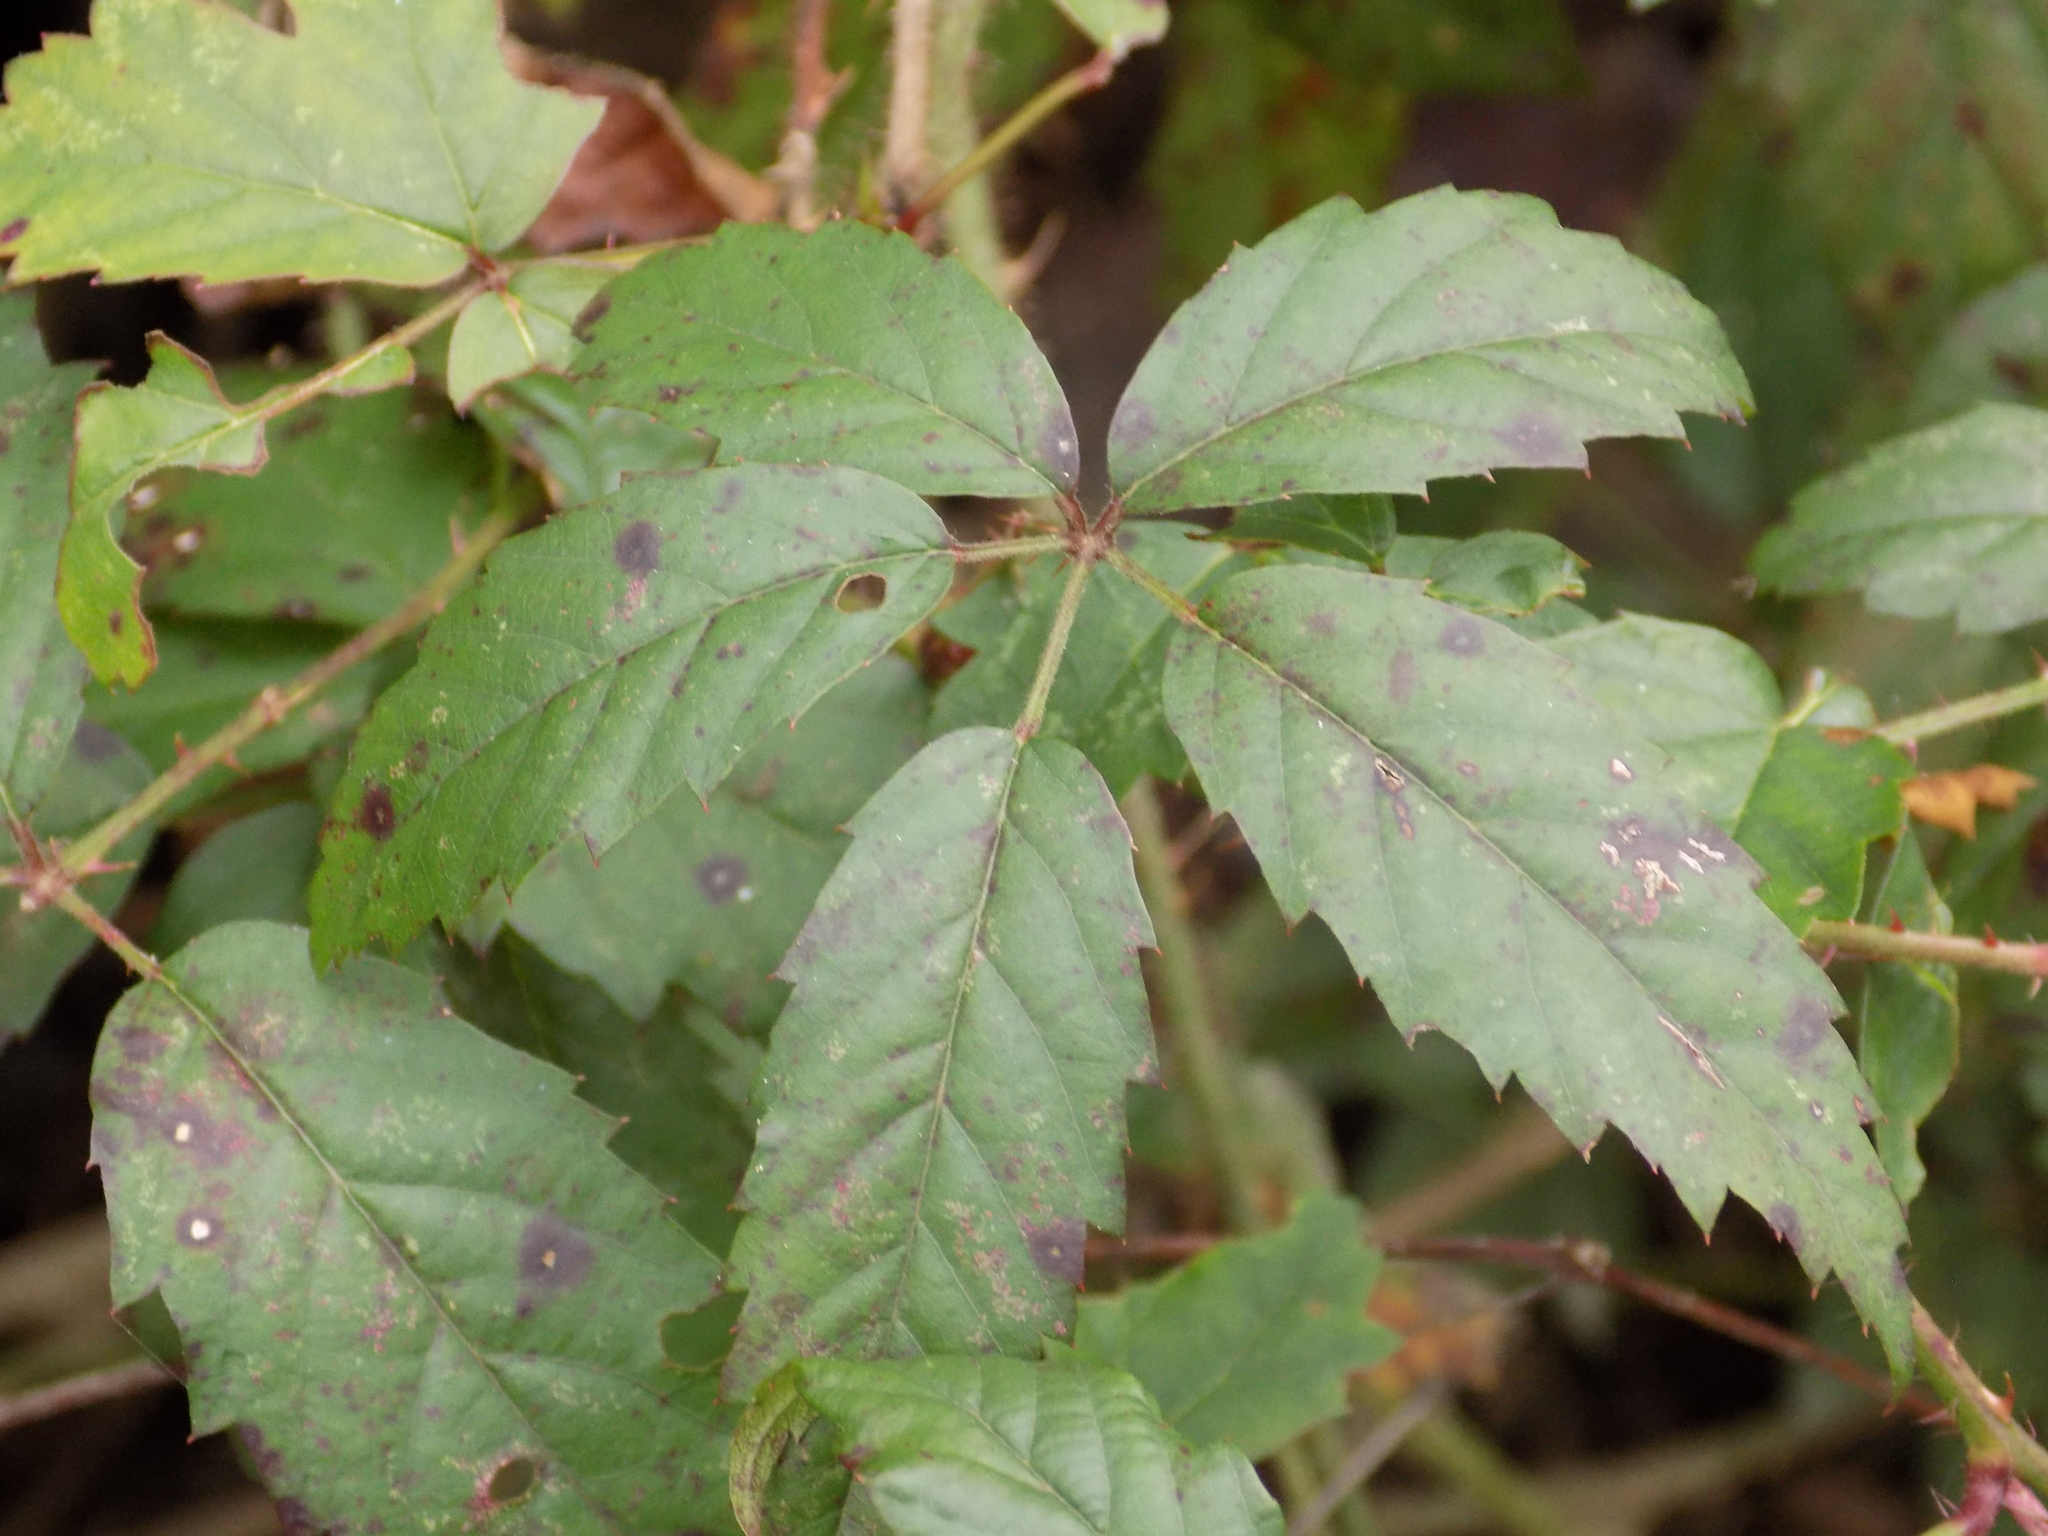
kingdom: Plantae
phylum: Tracheophyta
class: Magnoliopsida
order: Rosales
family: Rosaceae
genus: Rubus
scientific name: Rubus trivialis
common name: Southern dewberry
